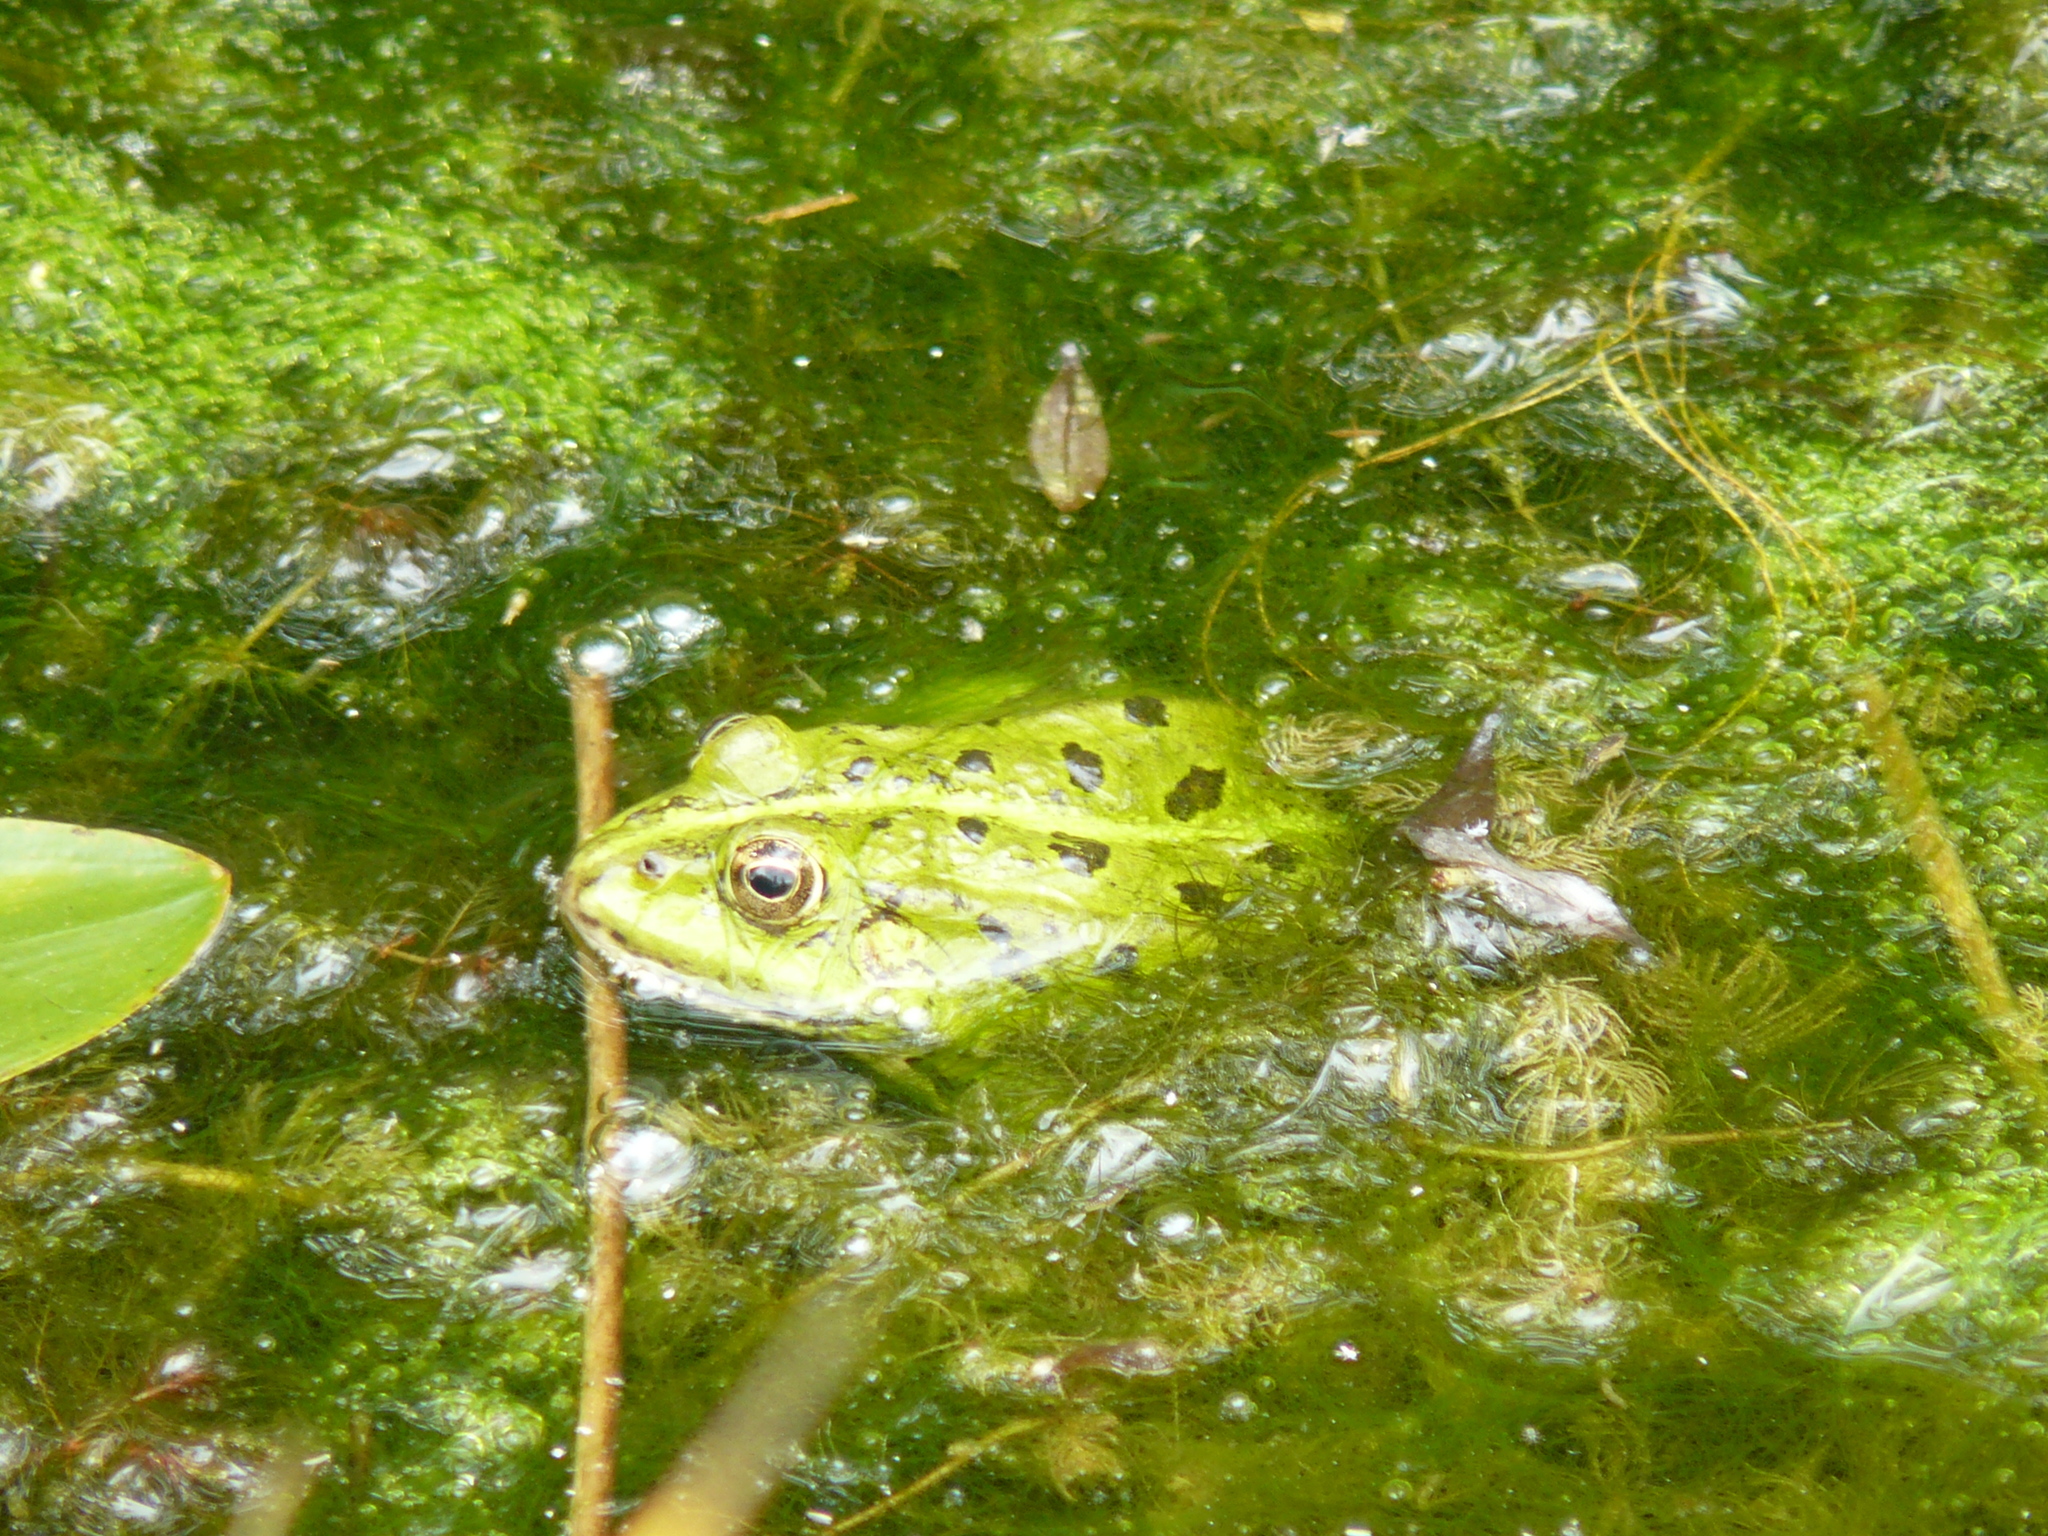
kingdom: Animalia
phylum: Chordata
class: Amphibia
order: Anura
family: Ranidae
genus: Pelophylax
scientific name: Pelophylax
